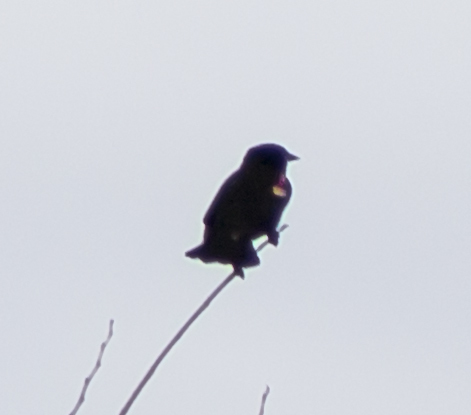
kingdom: Animalia
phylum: Chordata
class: Aves
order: Passeriformes
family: Icteridae
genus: Agelaius
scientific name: Agelaius phoeniceus
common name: Red-winged blackbird
